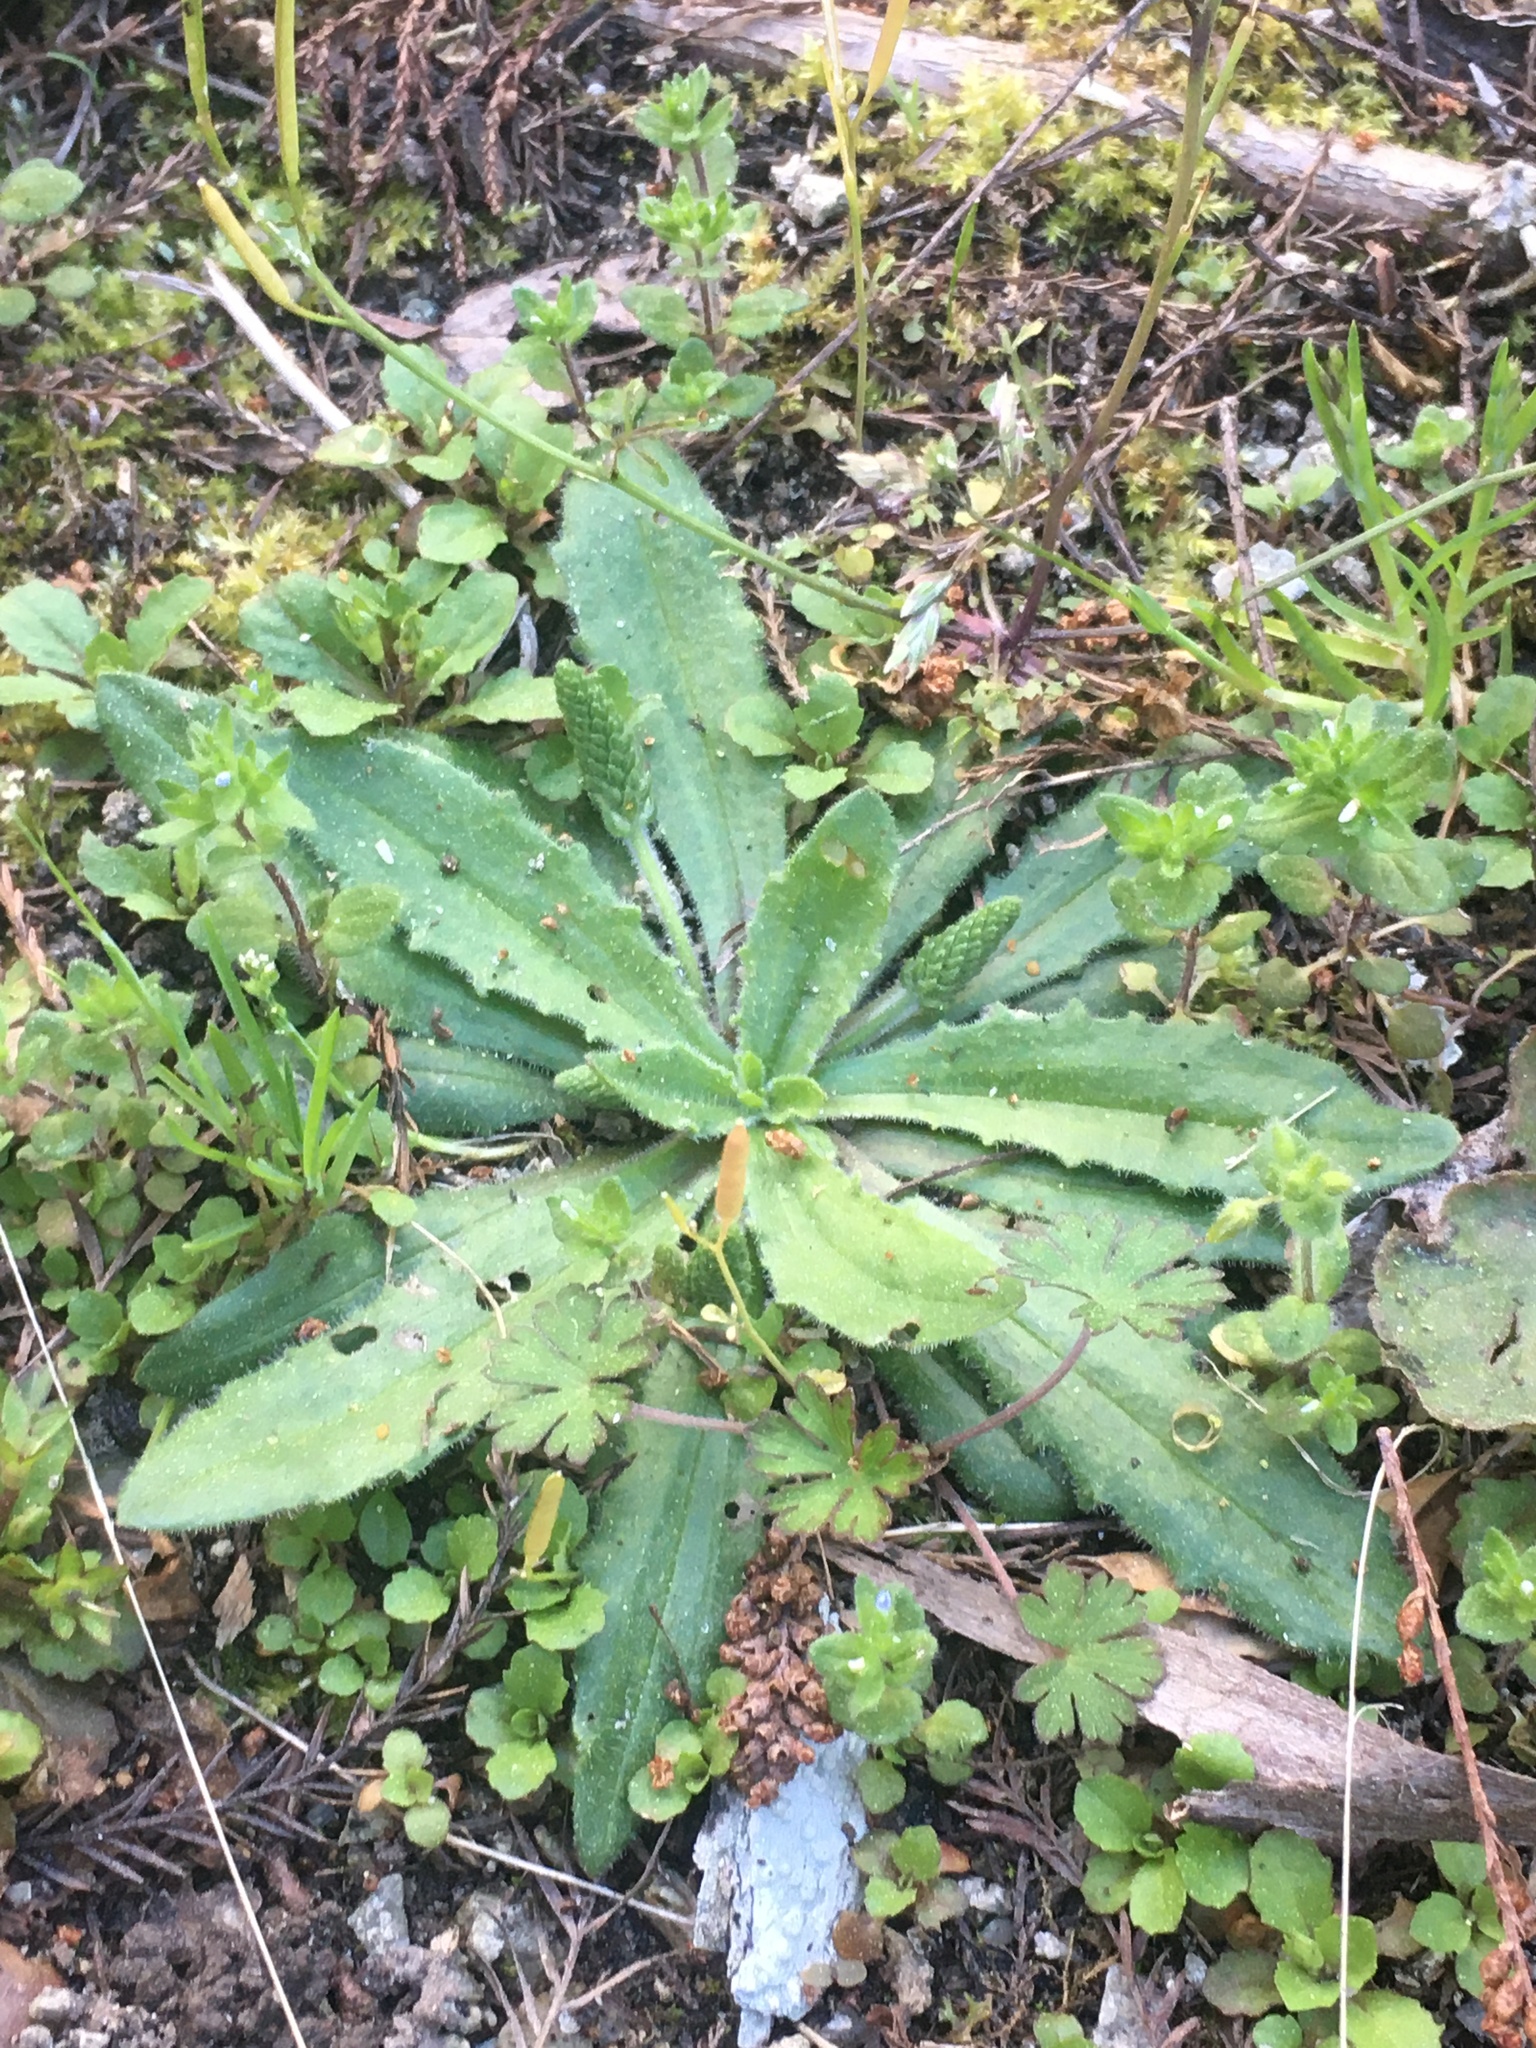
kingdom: Plantae
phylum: Tracheophyta
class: Magnoliopsida
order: Lamiales
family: Plantaginaceae
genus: Plantago
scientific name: Plantago virginica
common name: Hoary plantain
